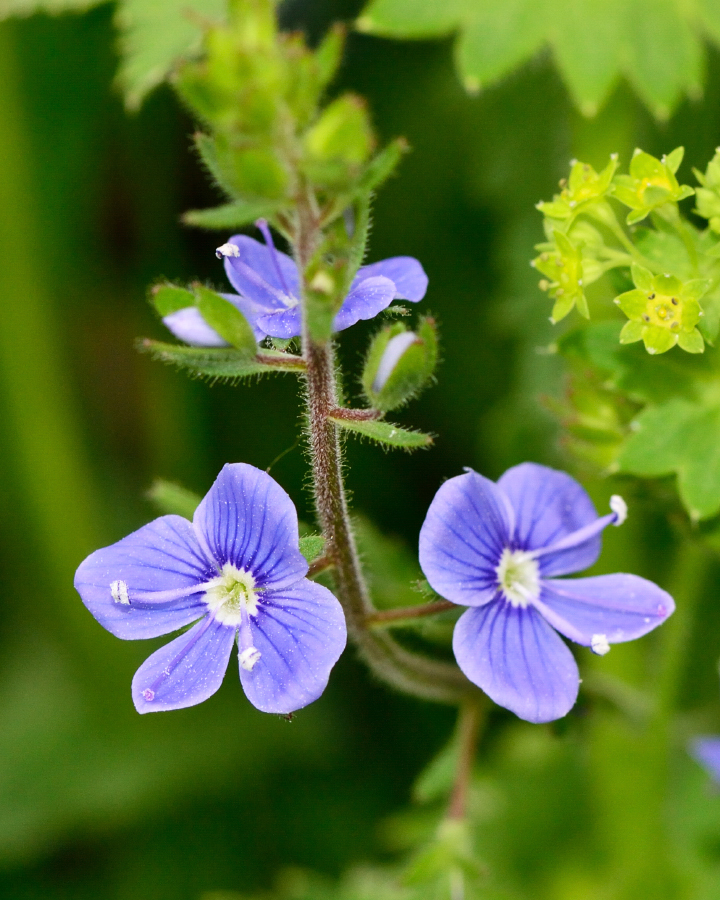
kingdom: Plantae
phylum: Tracheophyta
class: Magnoliopsida
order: Lamiales
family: Plantaginaceae
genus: Veronica
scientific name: Veronica chamaedrys
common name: Germander speedwell
